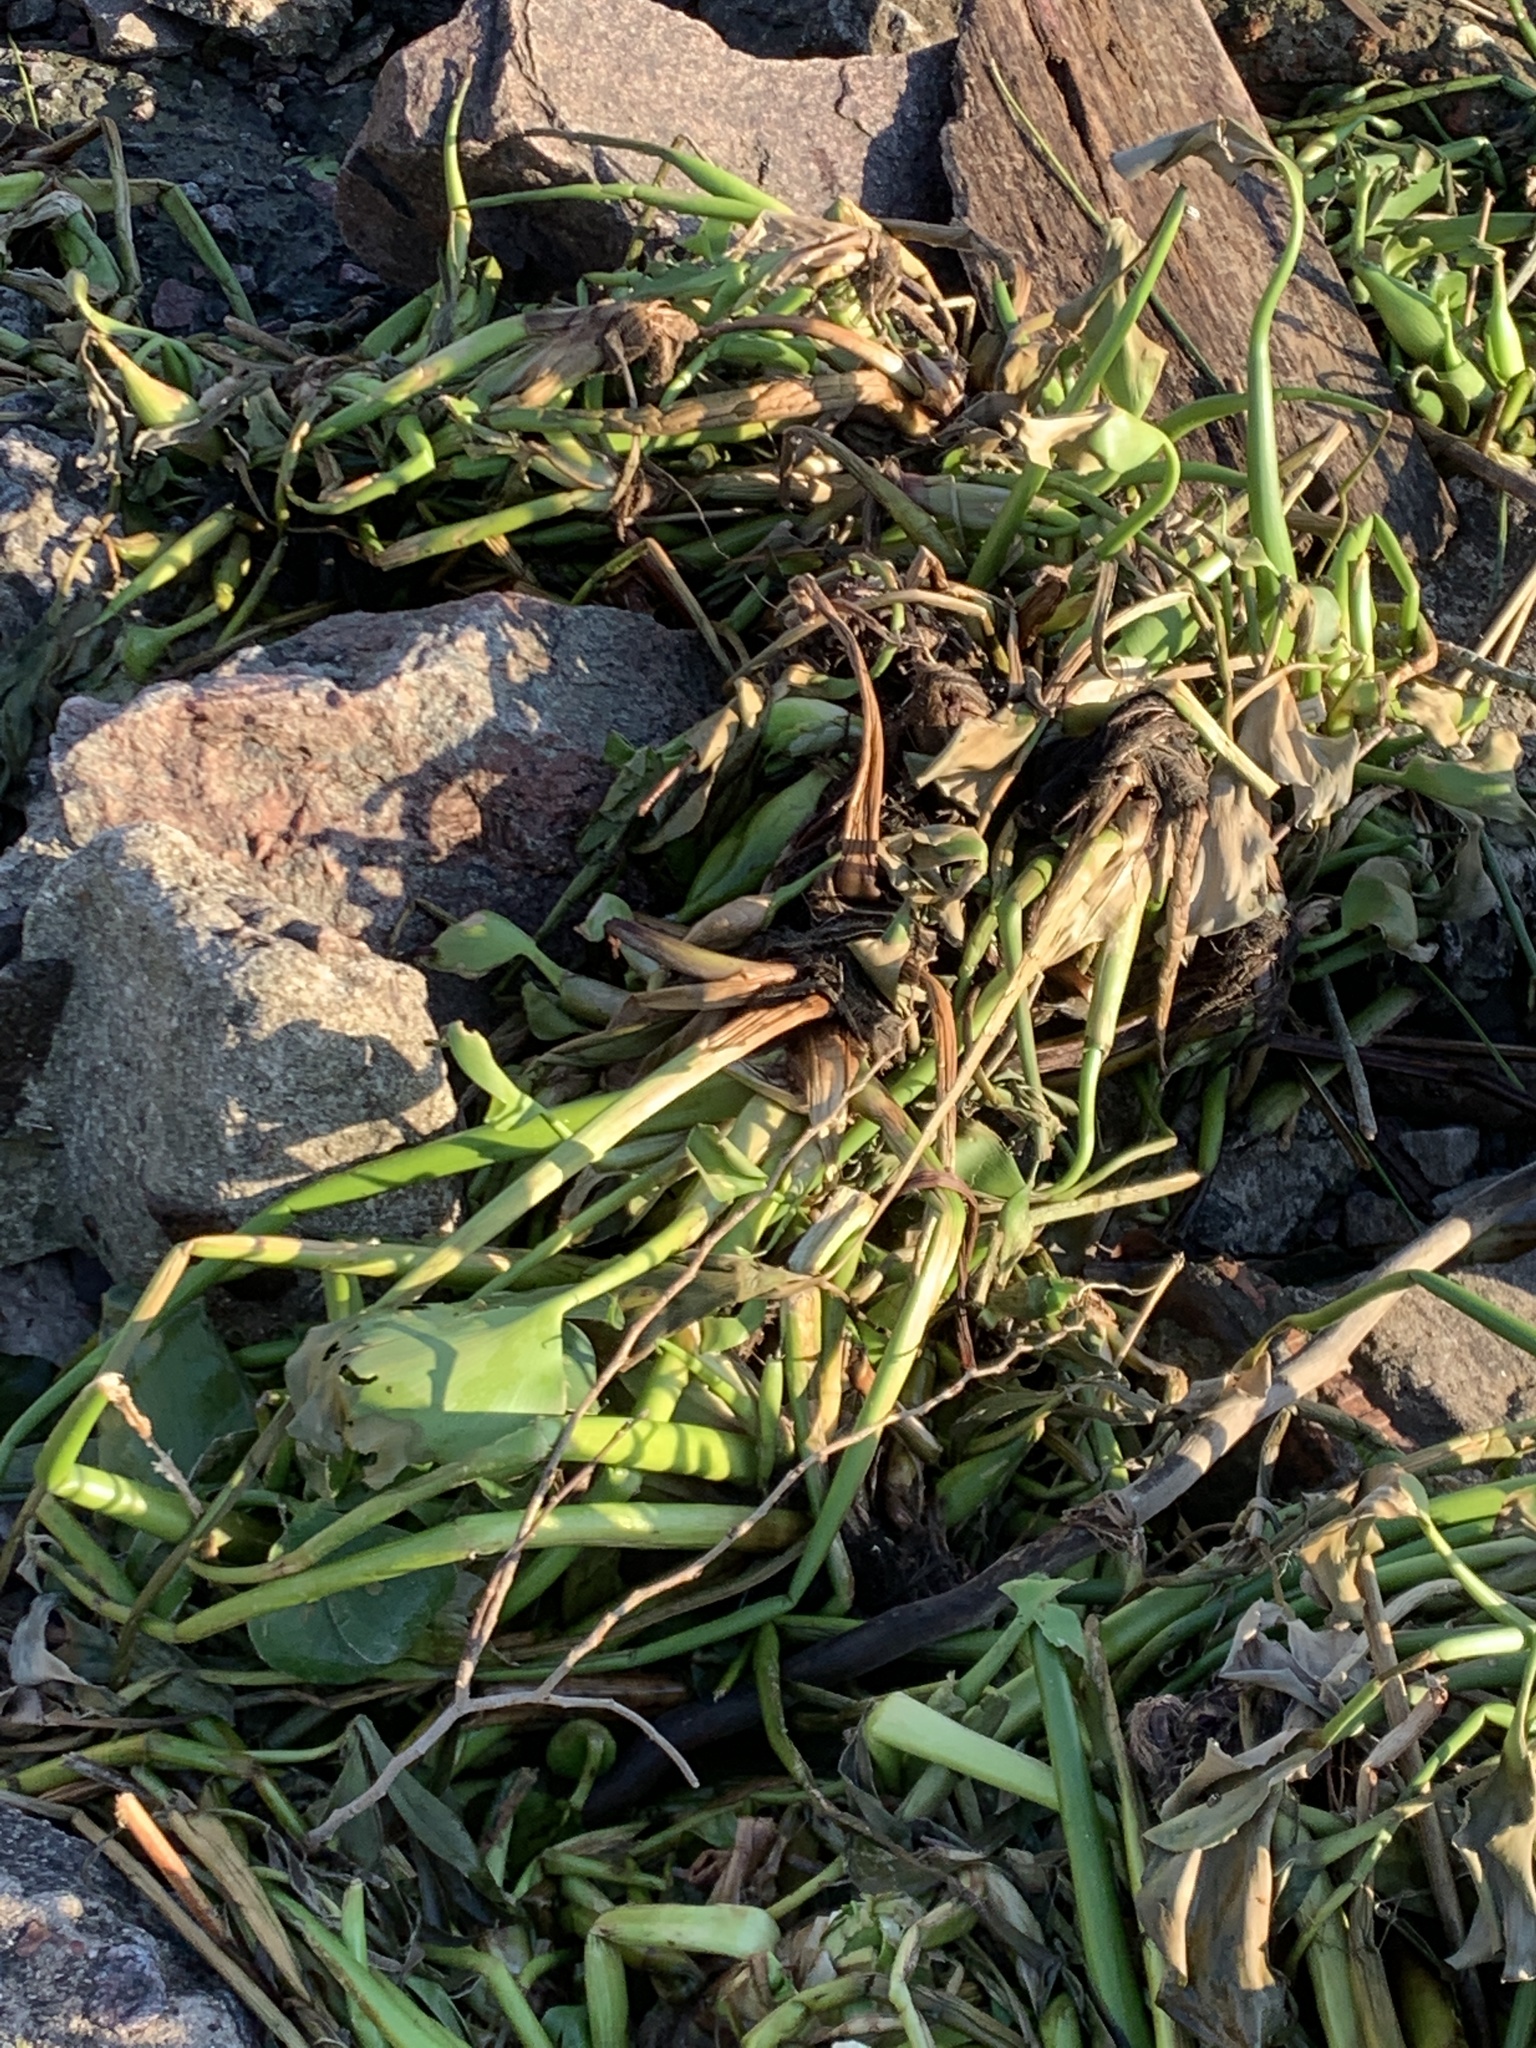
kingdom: Plantae
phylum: Tracheophyta
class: Liliopsida
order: Commelinales
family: Pontederiaceae
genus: Pontederia
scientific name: Pontederia crassipes
